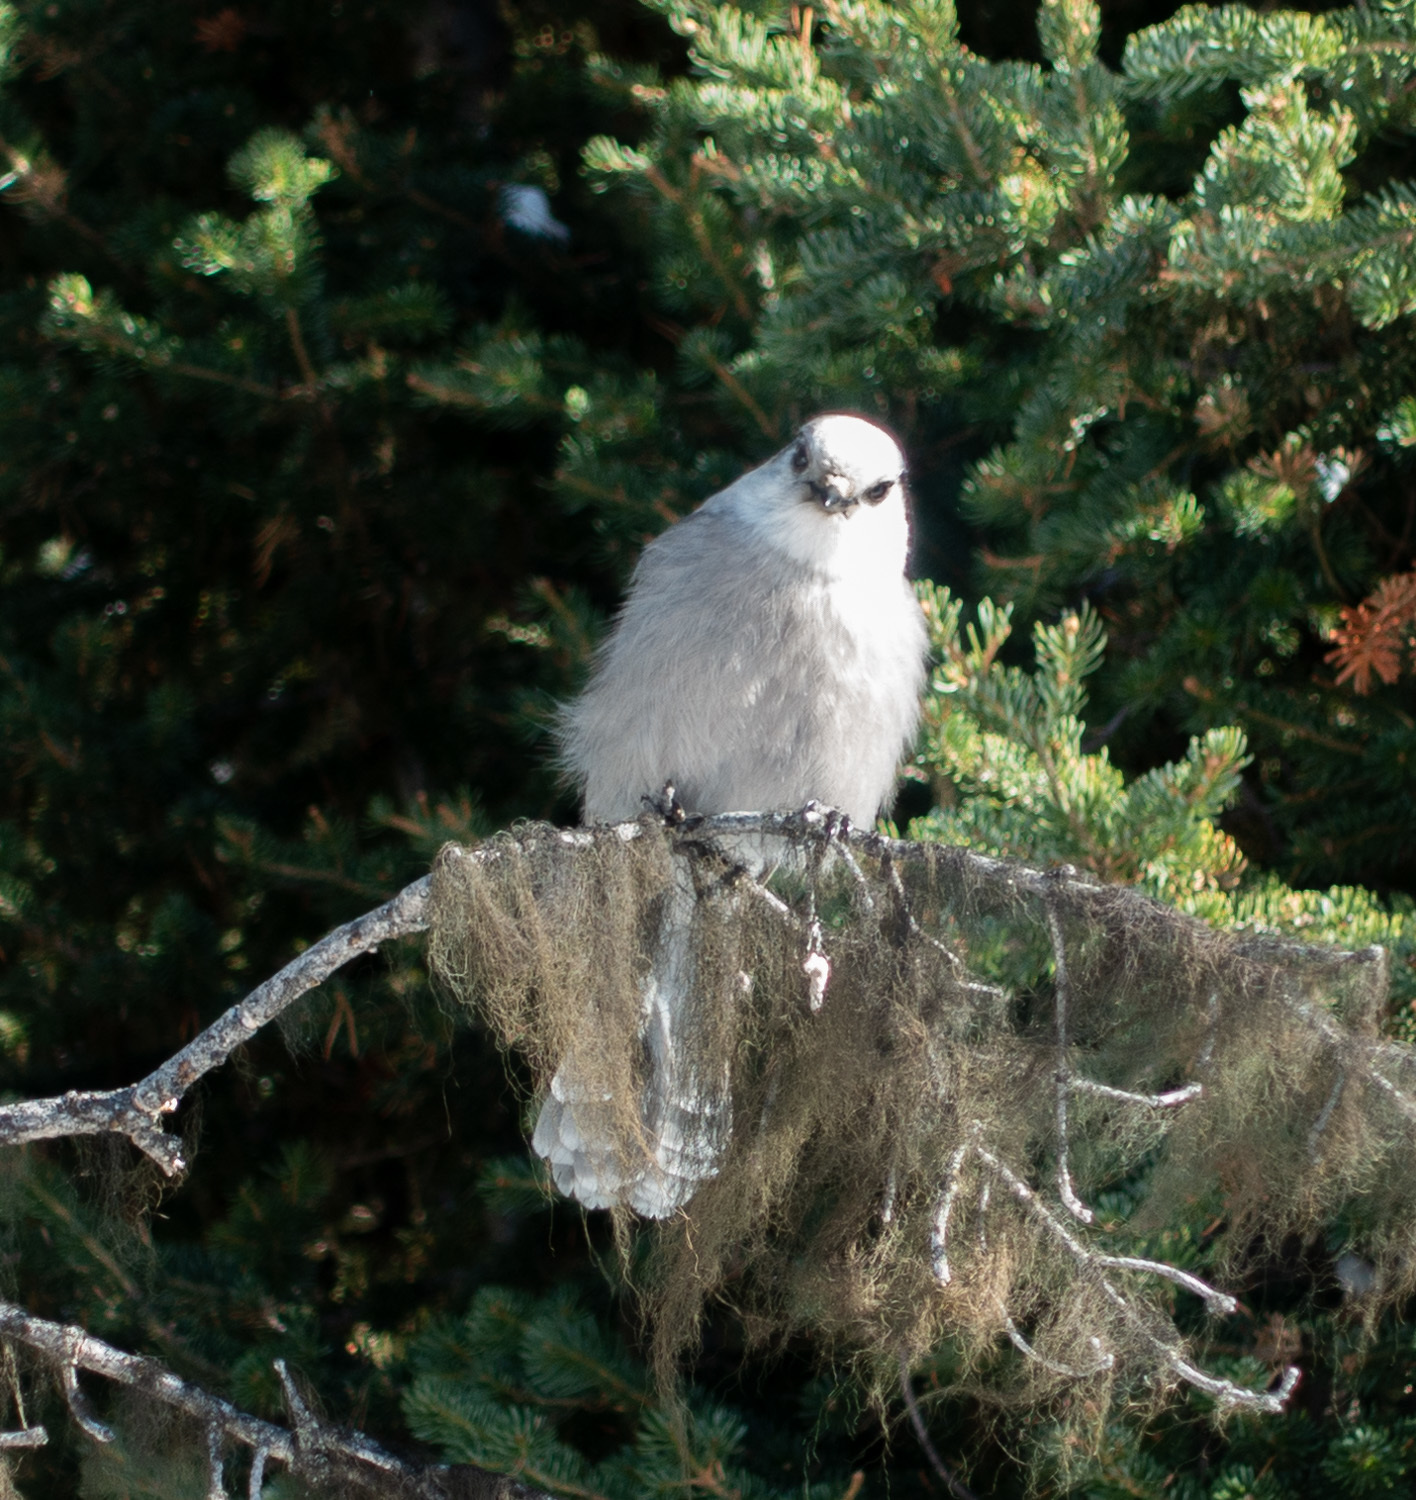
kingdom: Animalia
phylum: Chordata
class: Aves
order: Passeriformes
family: Corvidae
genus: Perisoreus
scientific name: Perisoreus canadensis
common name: Gray jay
